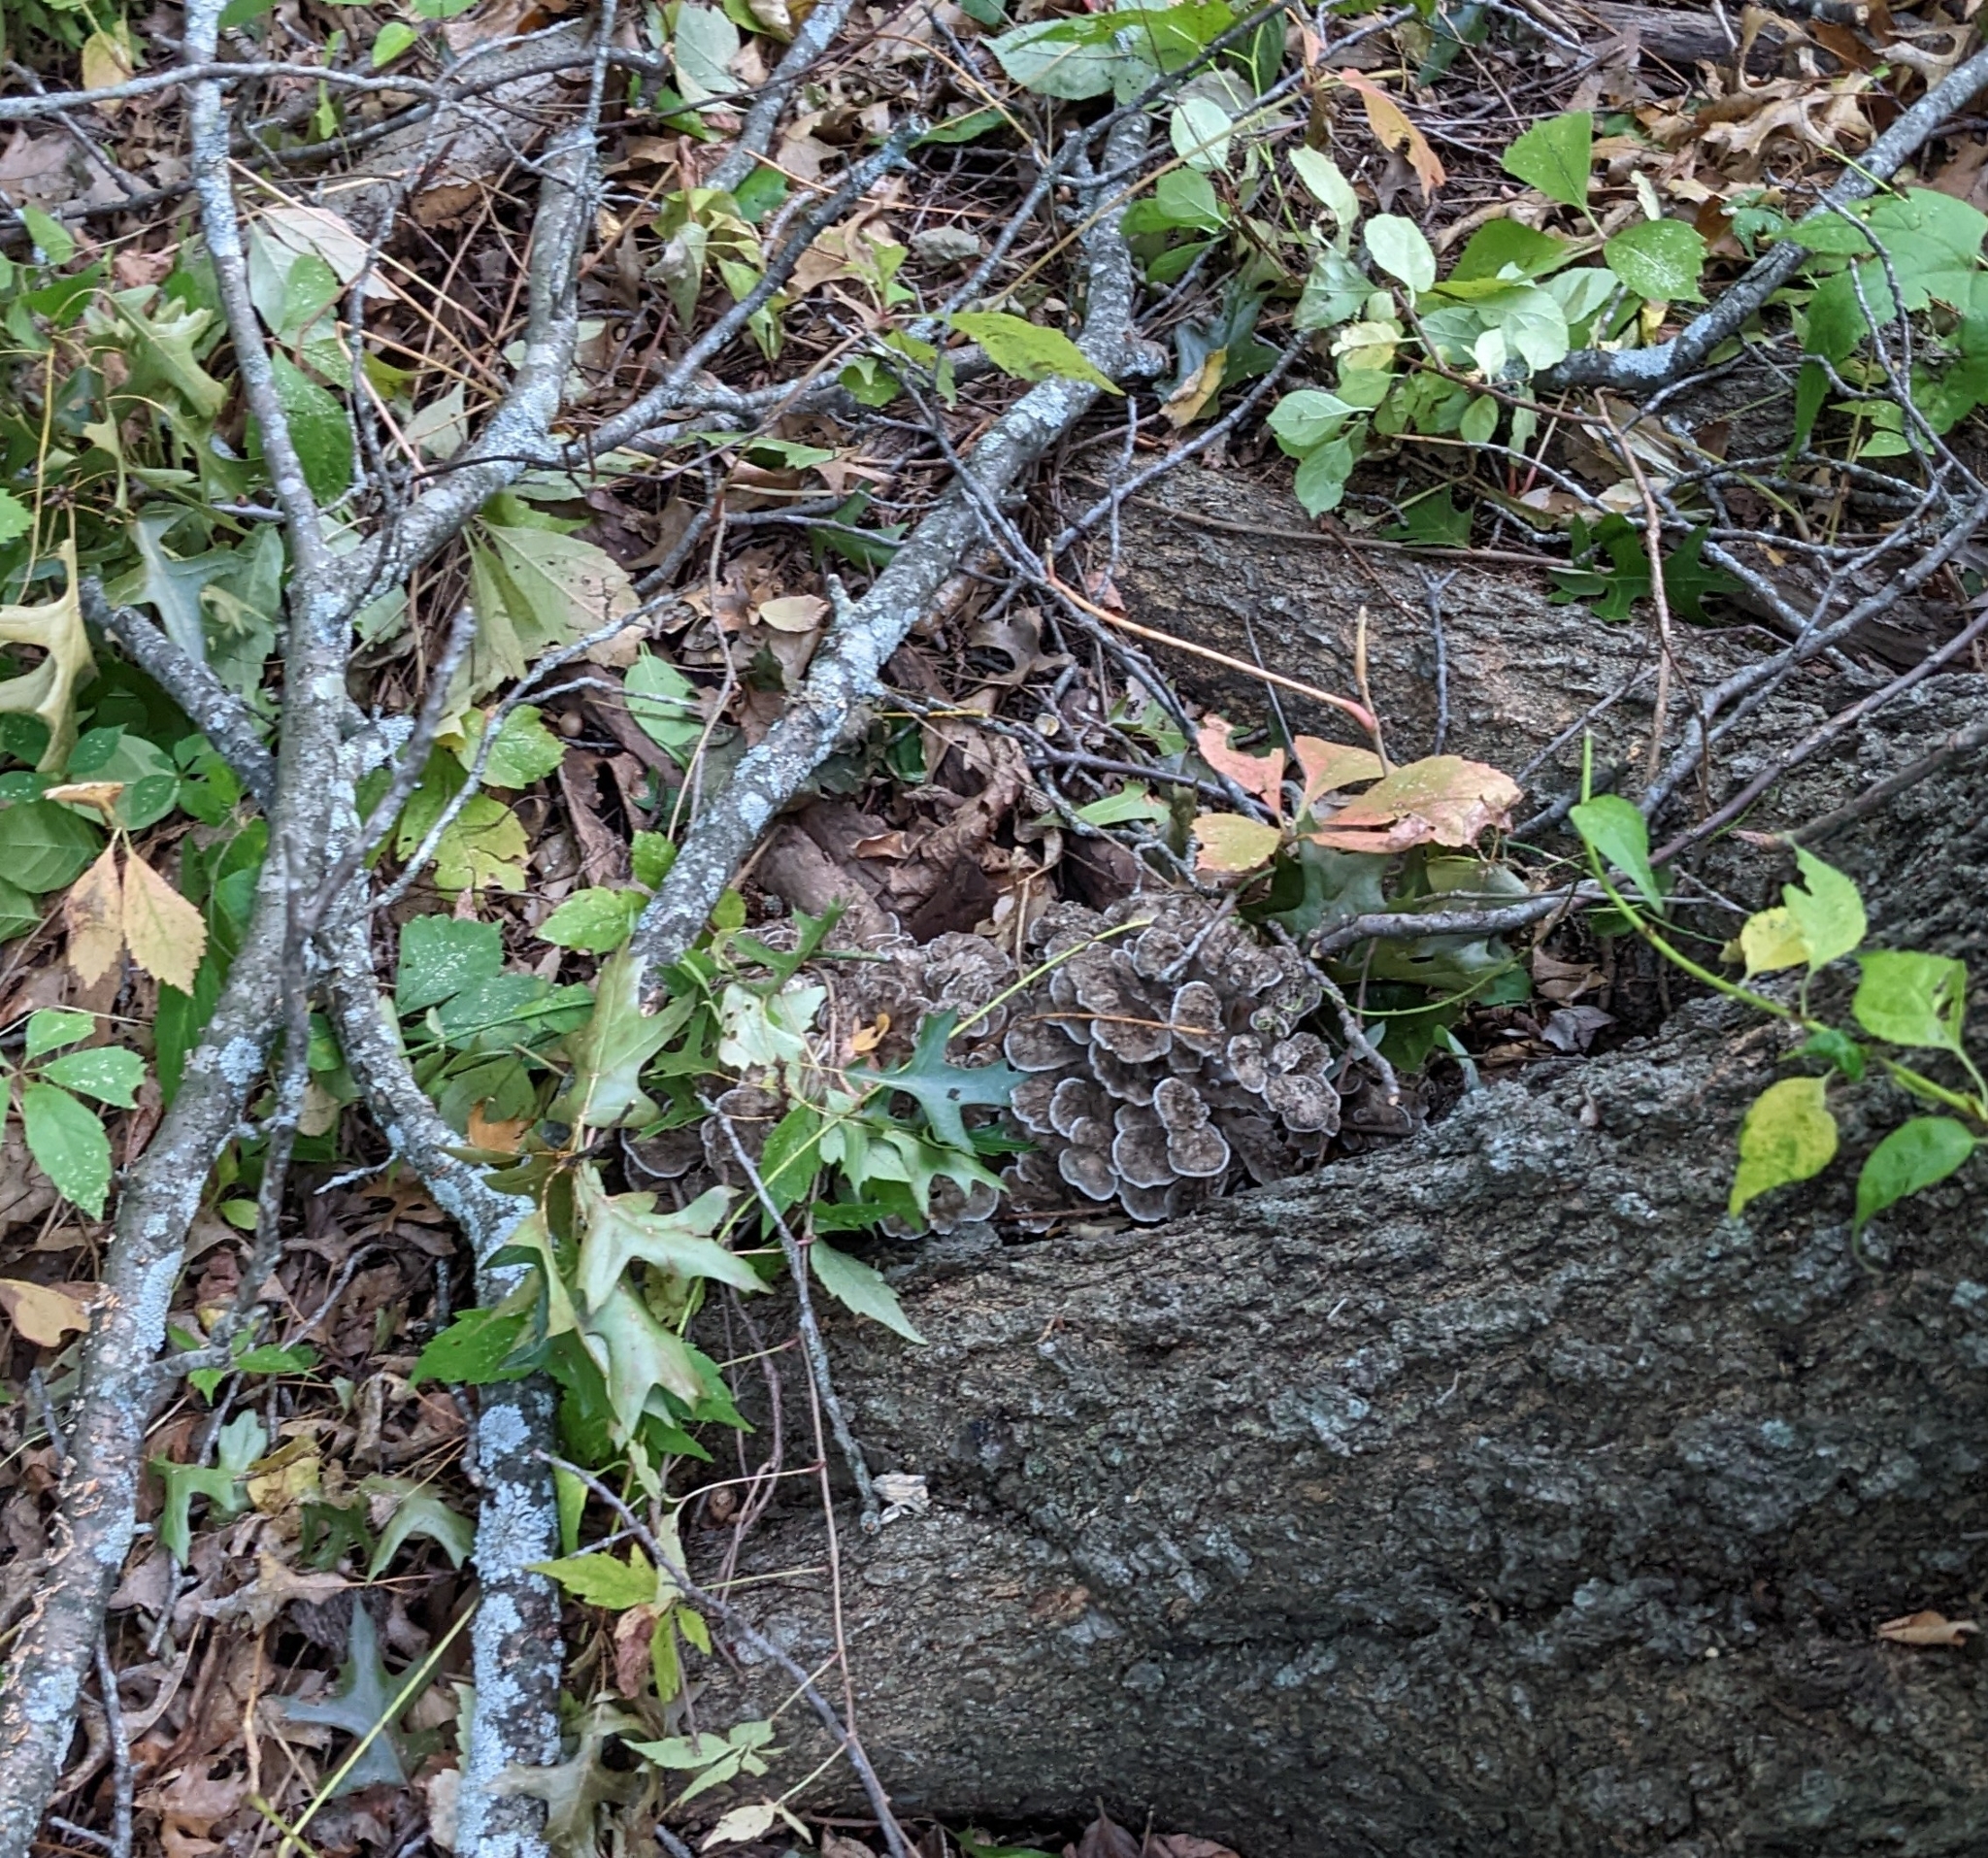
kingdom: Fungi
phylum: Basidiomycota
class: Agaricomycetes
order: Polyporales
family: Grifolaceae
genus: Grifola
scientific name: Grifola frondosa
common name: Hen of the woods
